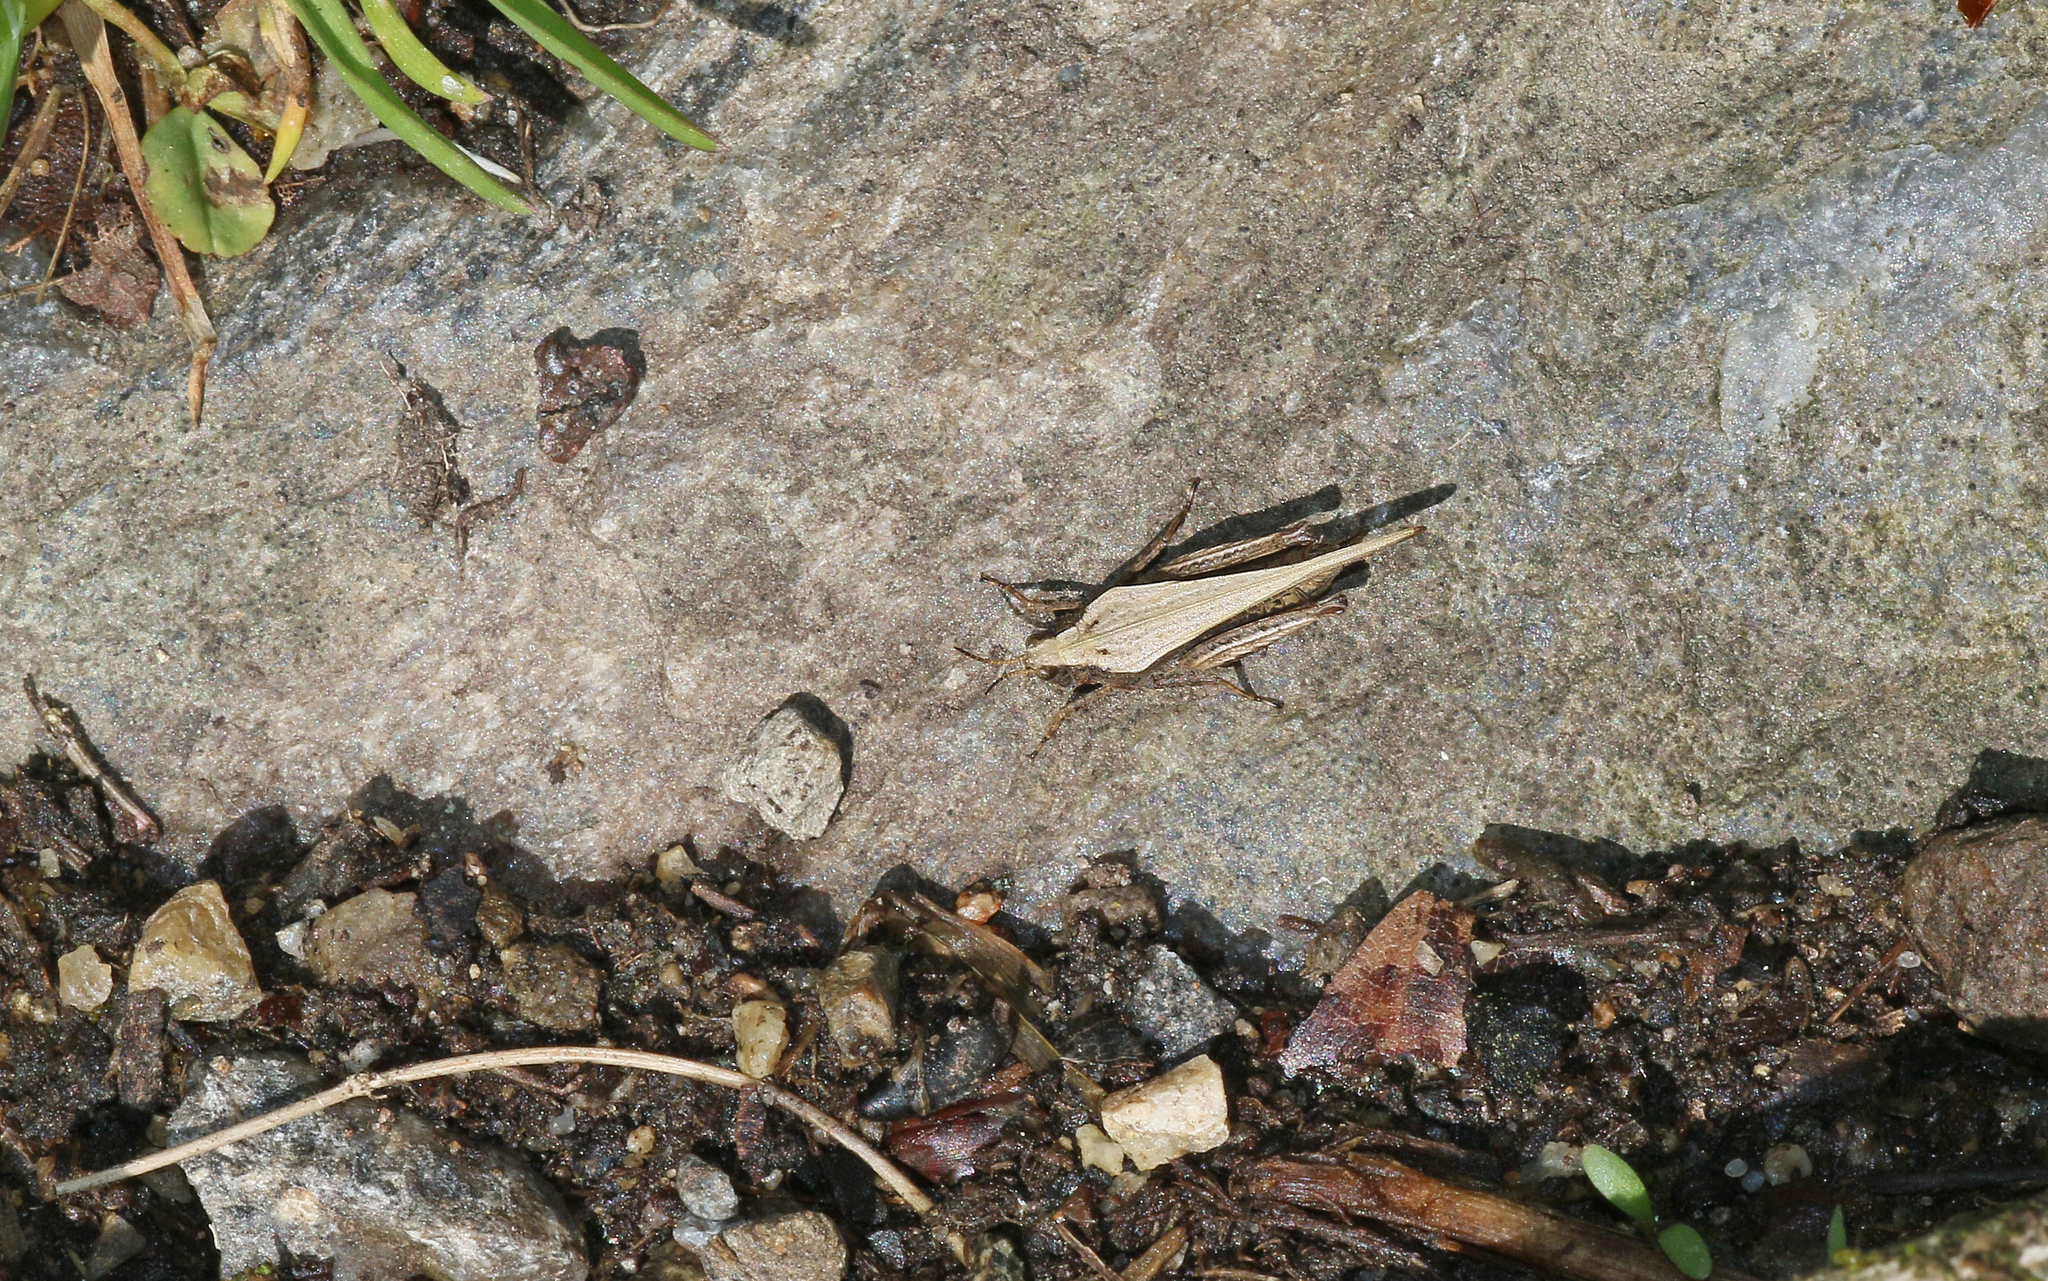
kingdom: Animalia
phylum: Arthropoda
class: Insecta
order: Orthoptera
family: Tetrigidae
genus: Tetrix
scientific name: Tetrix subulata
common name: Slender ground-hopper
